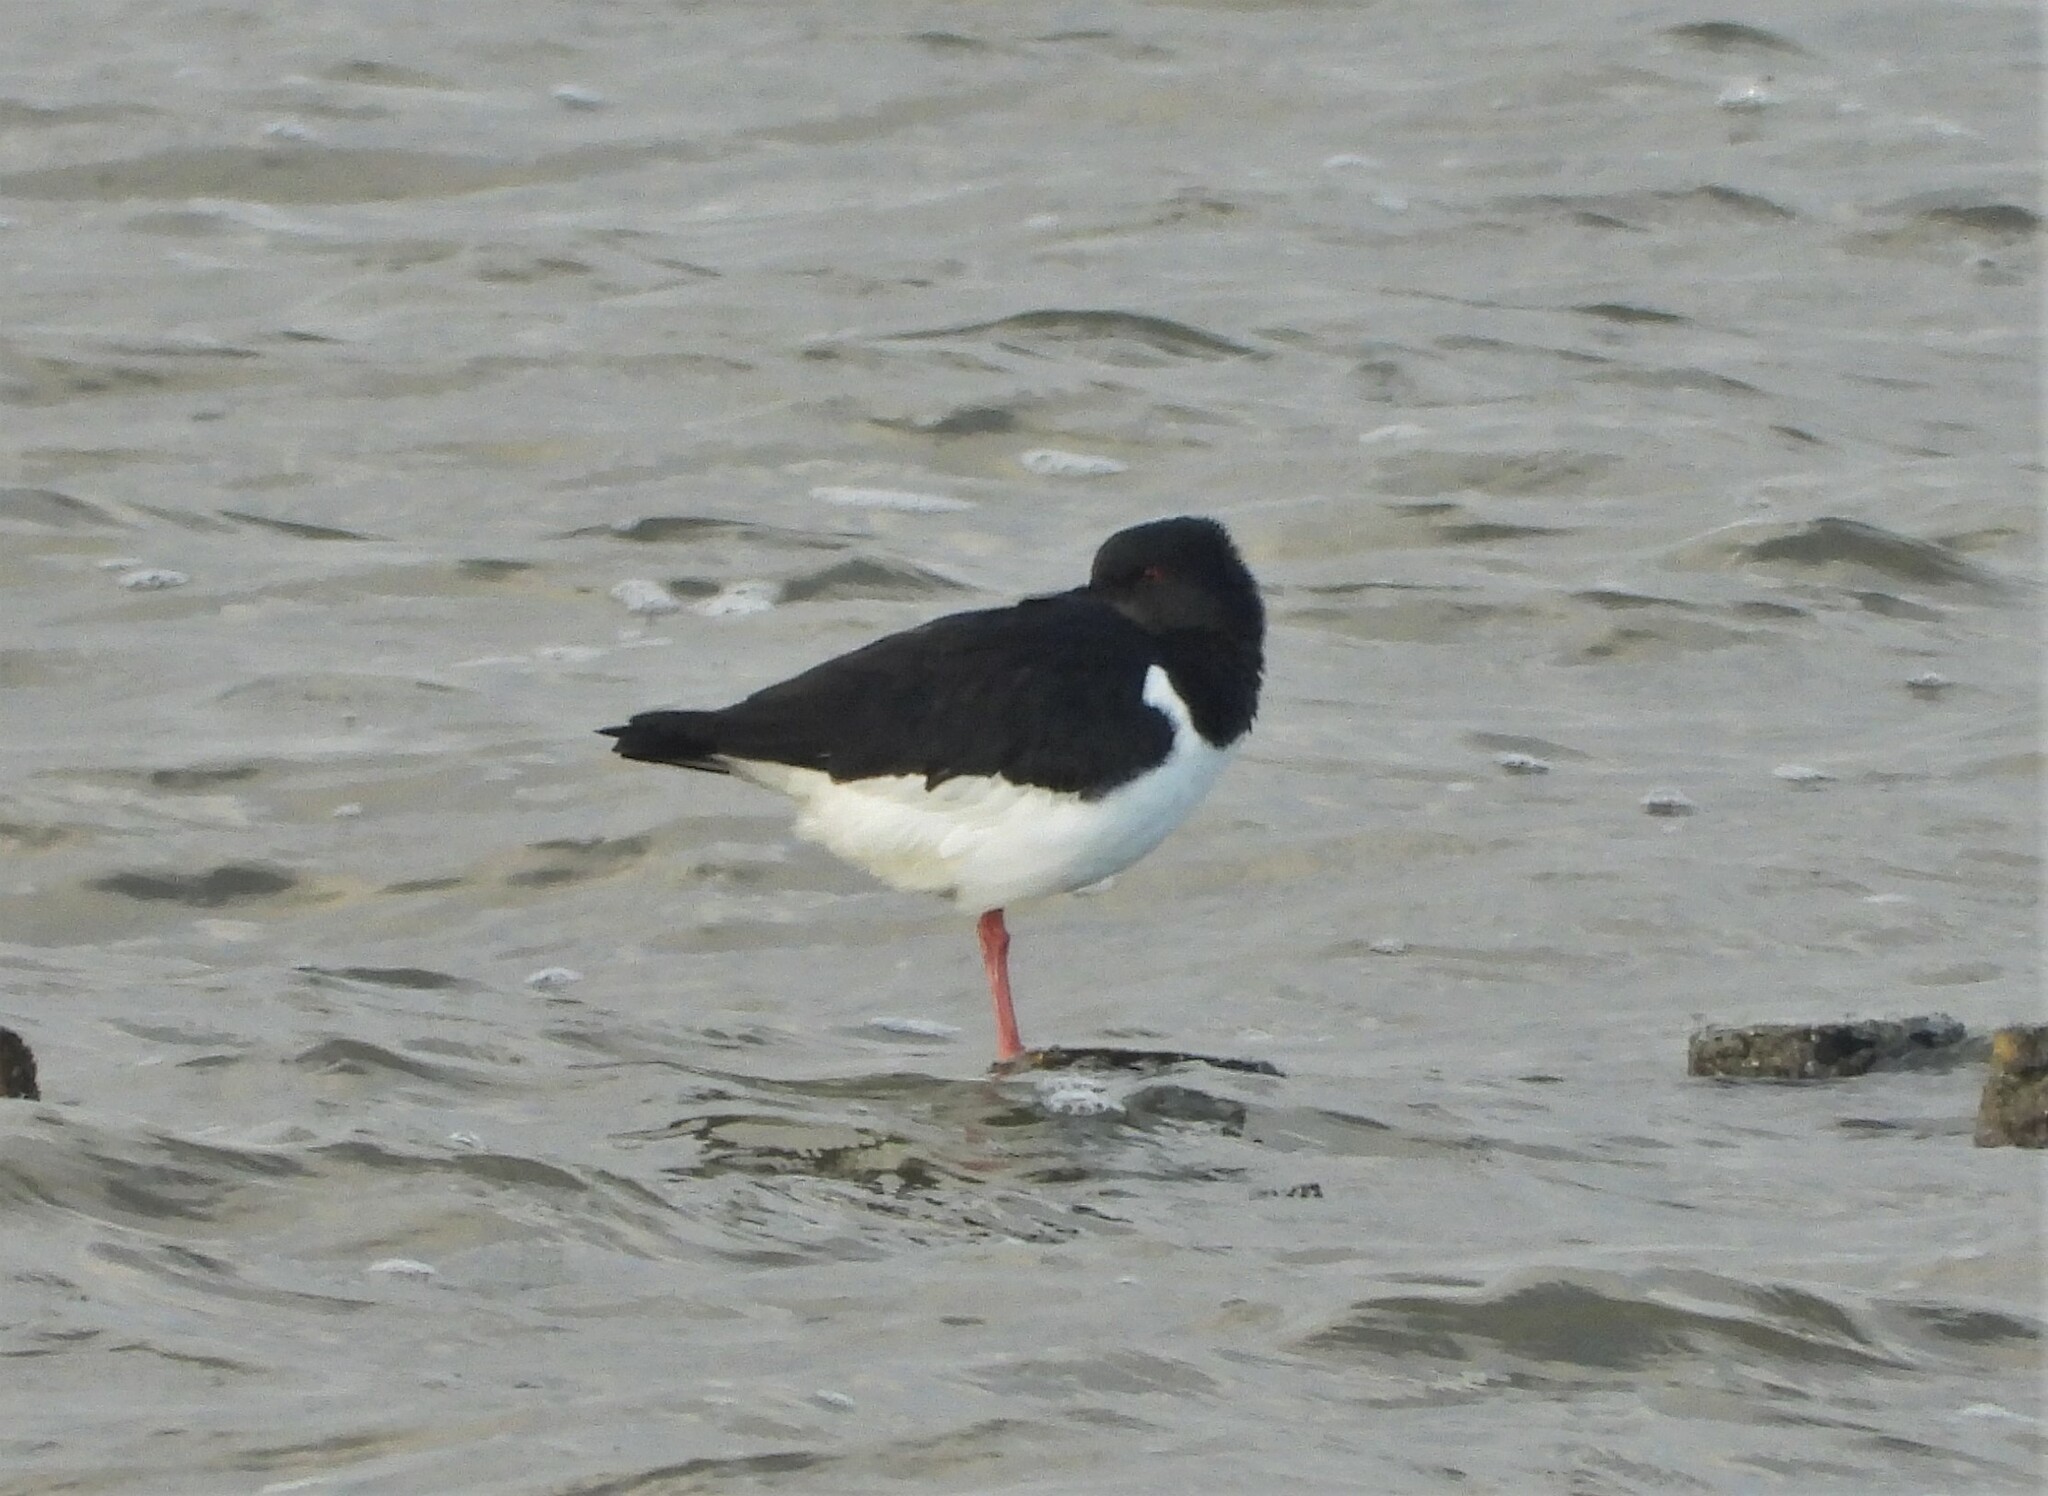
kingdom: Animalia
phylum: Chordata
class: Aves
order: Charadriiformes
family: Haematopodidae
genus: Haematopus
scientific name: Haematopus ostralegus
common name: Eurasian oystercatcher
